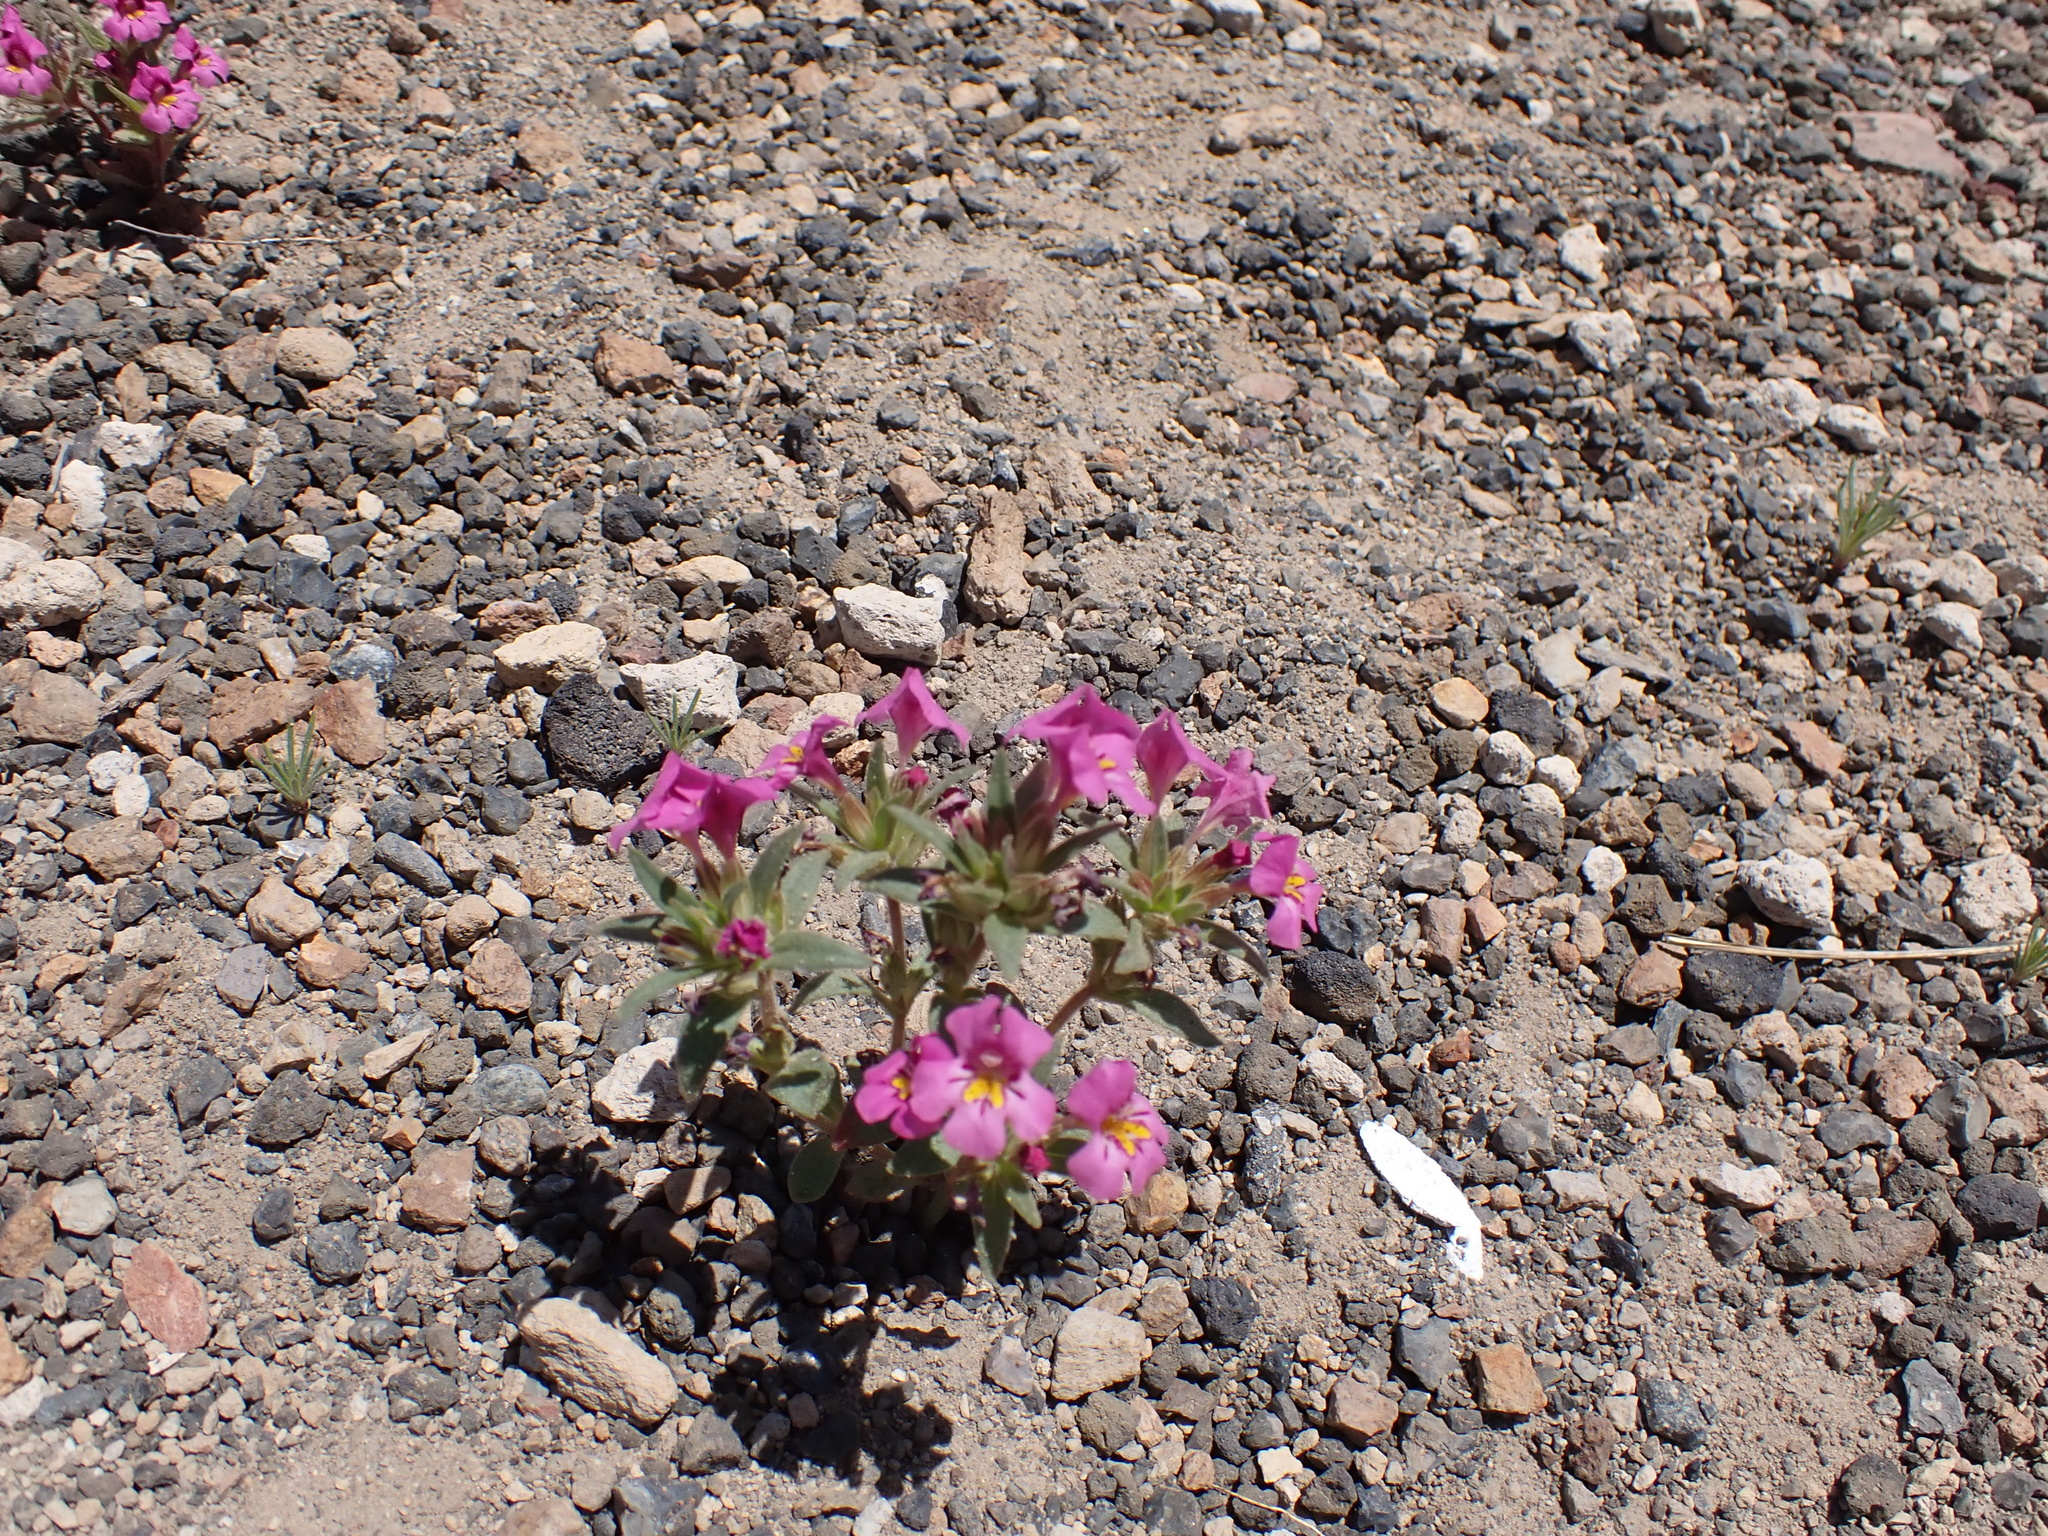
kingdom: Plantae
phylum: Tracheophyta
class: Magnoliopsida
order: Lamiales
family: Phrymaceae
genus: Diplacus
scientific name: Diplacus mephiticus
